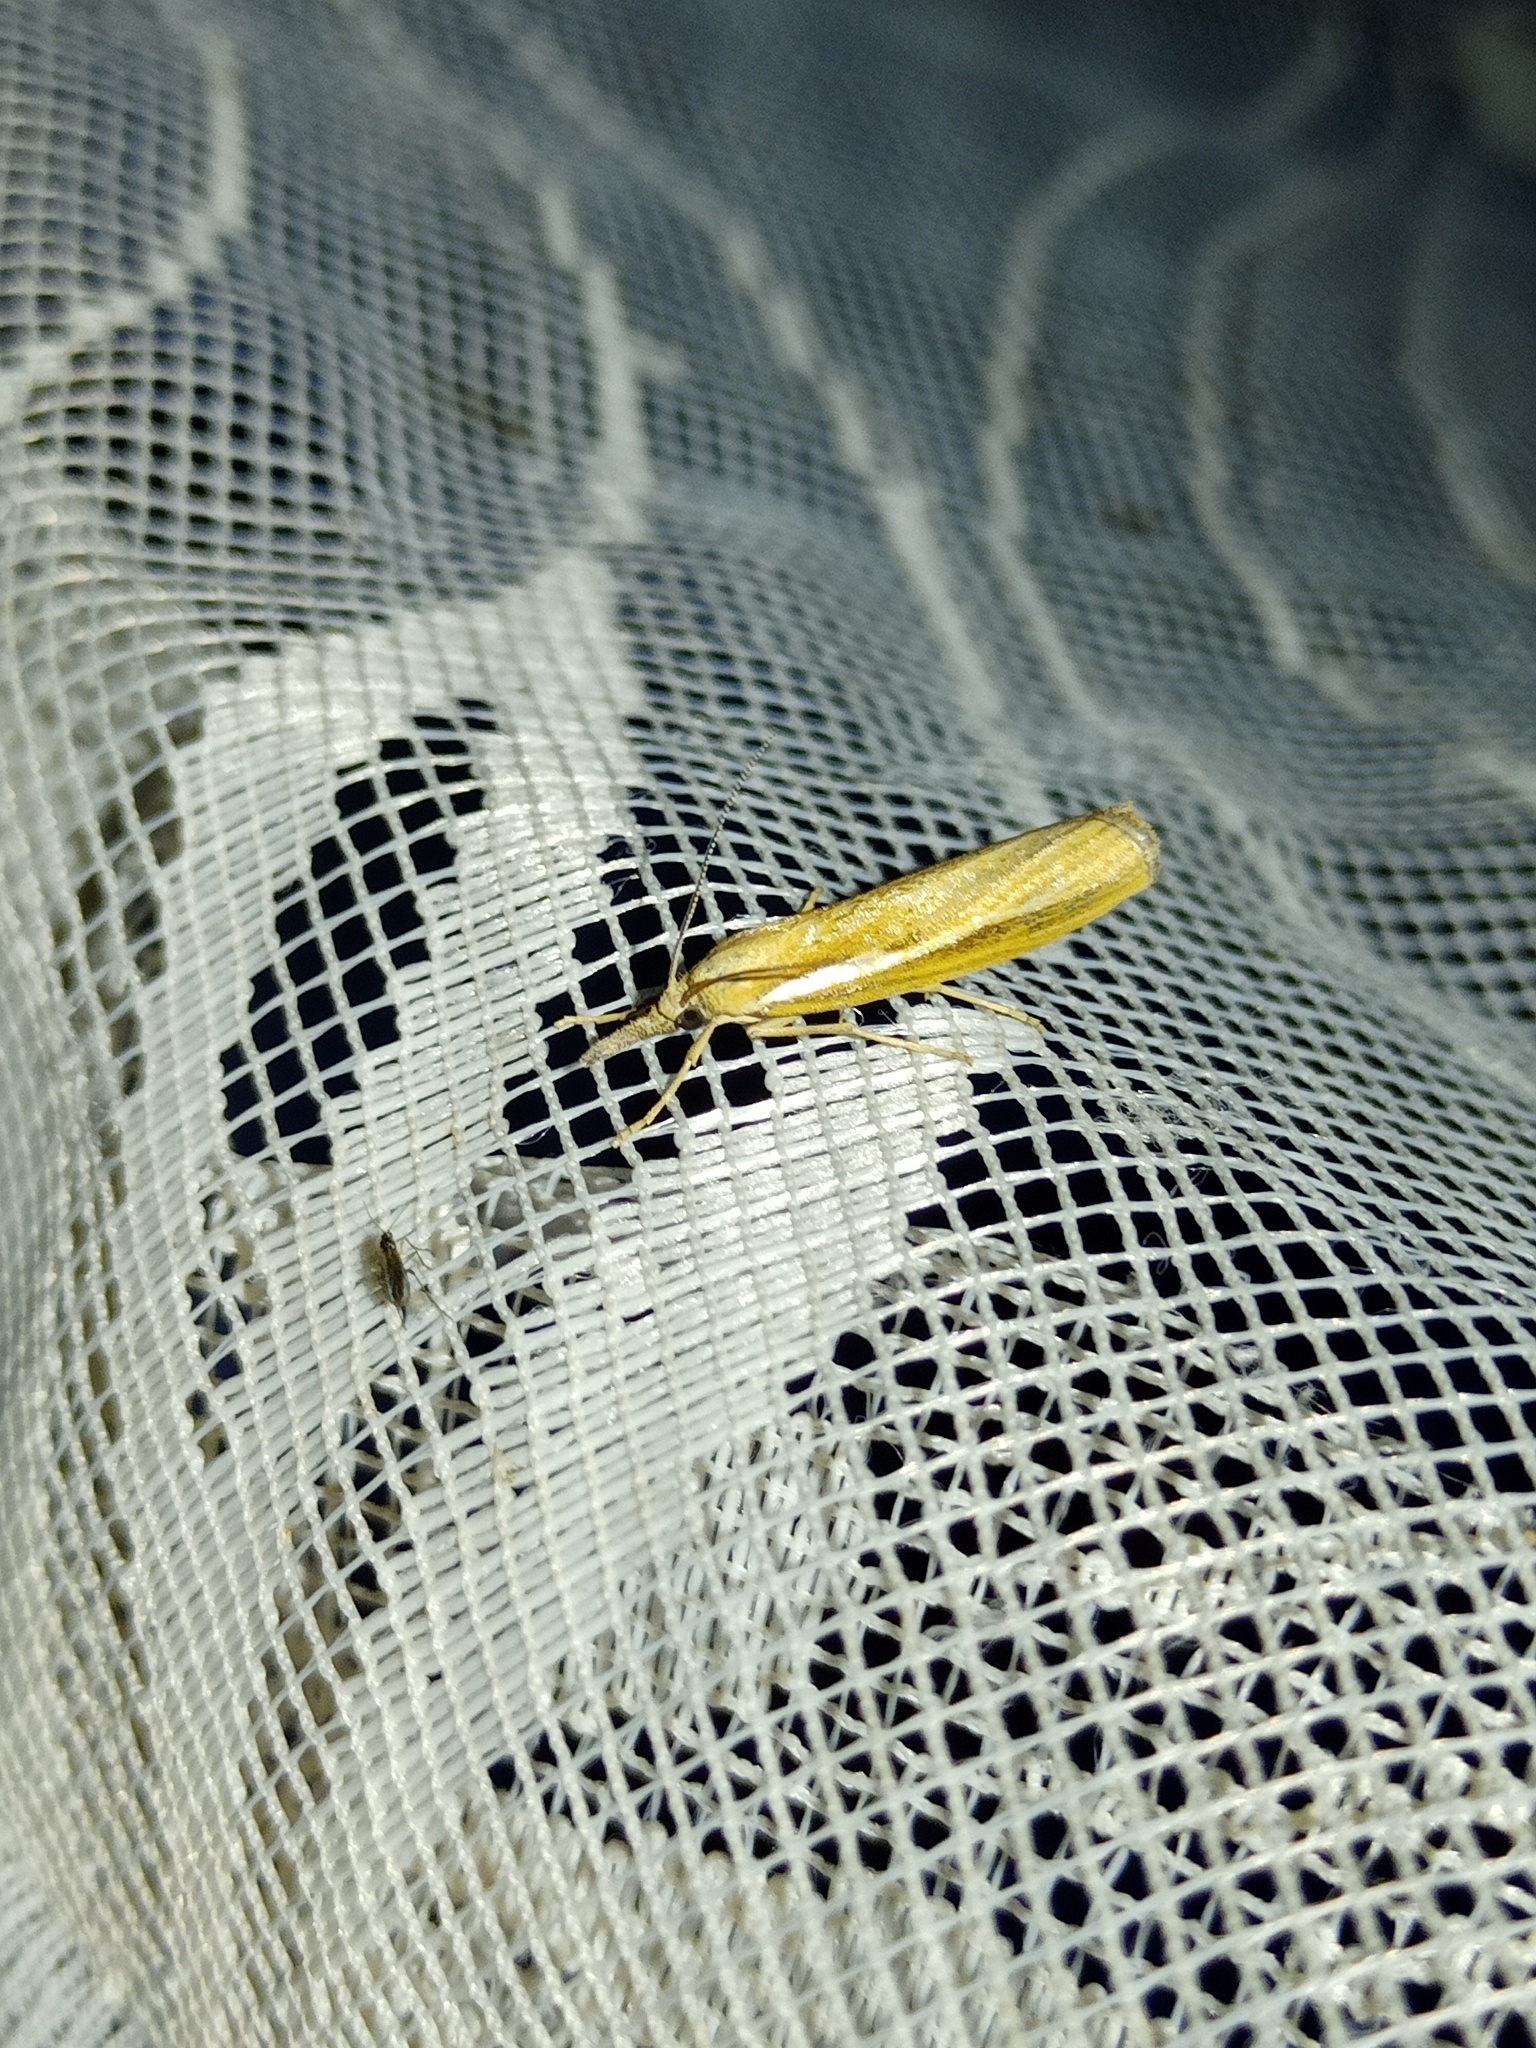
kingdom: Animalia
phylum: Arthropoda
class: Insecta
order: Lepidoptera
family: Crambidae
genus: Agriphila
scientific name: Agriphila tristellus
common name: Common grass-veneer
